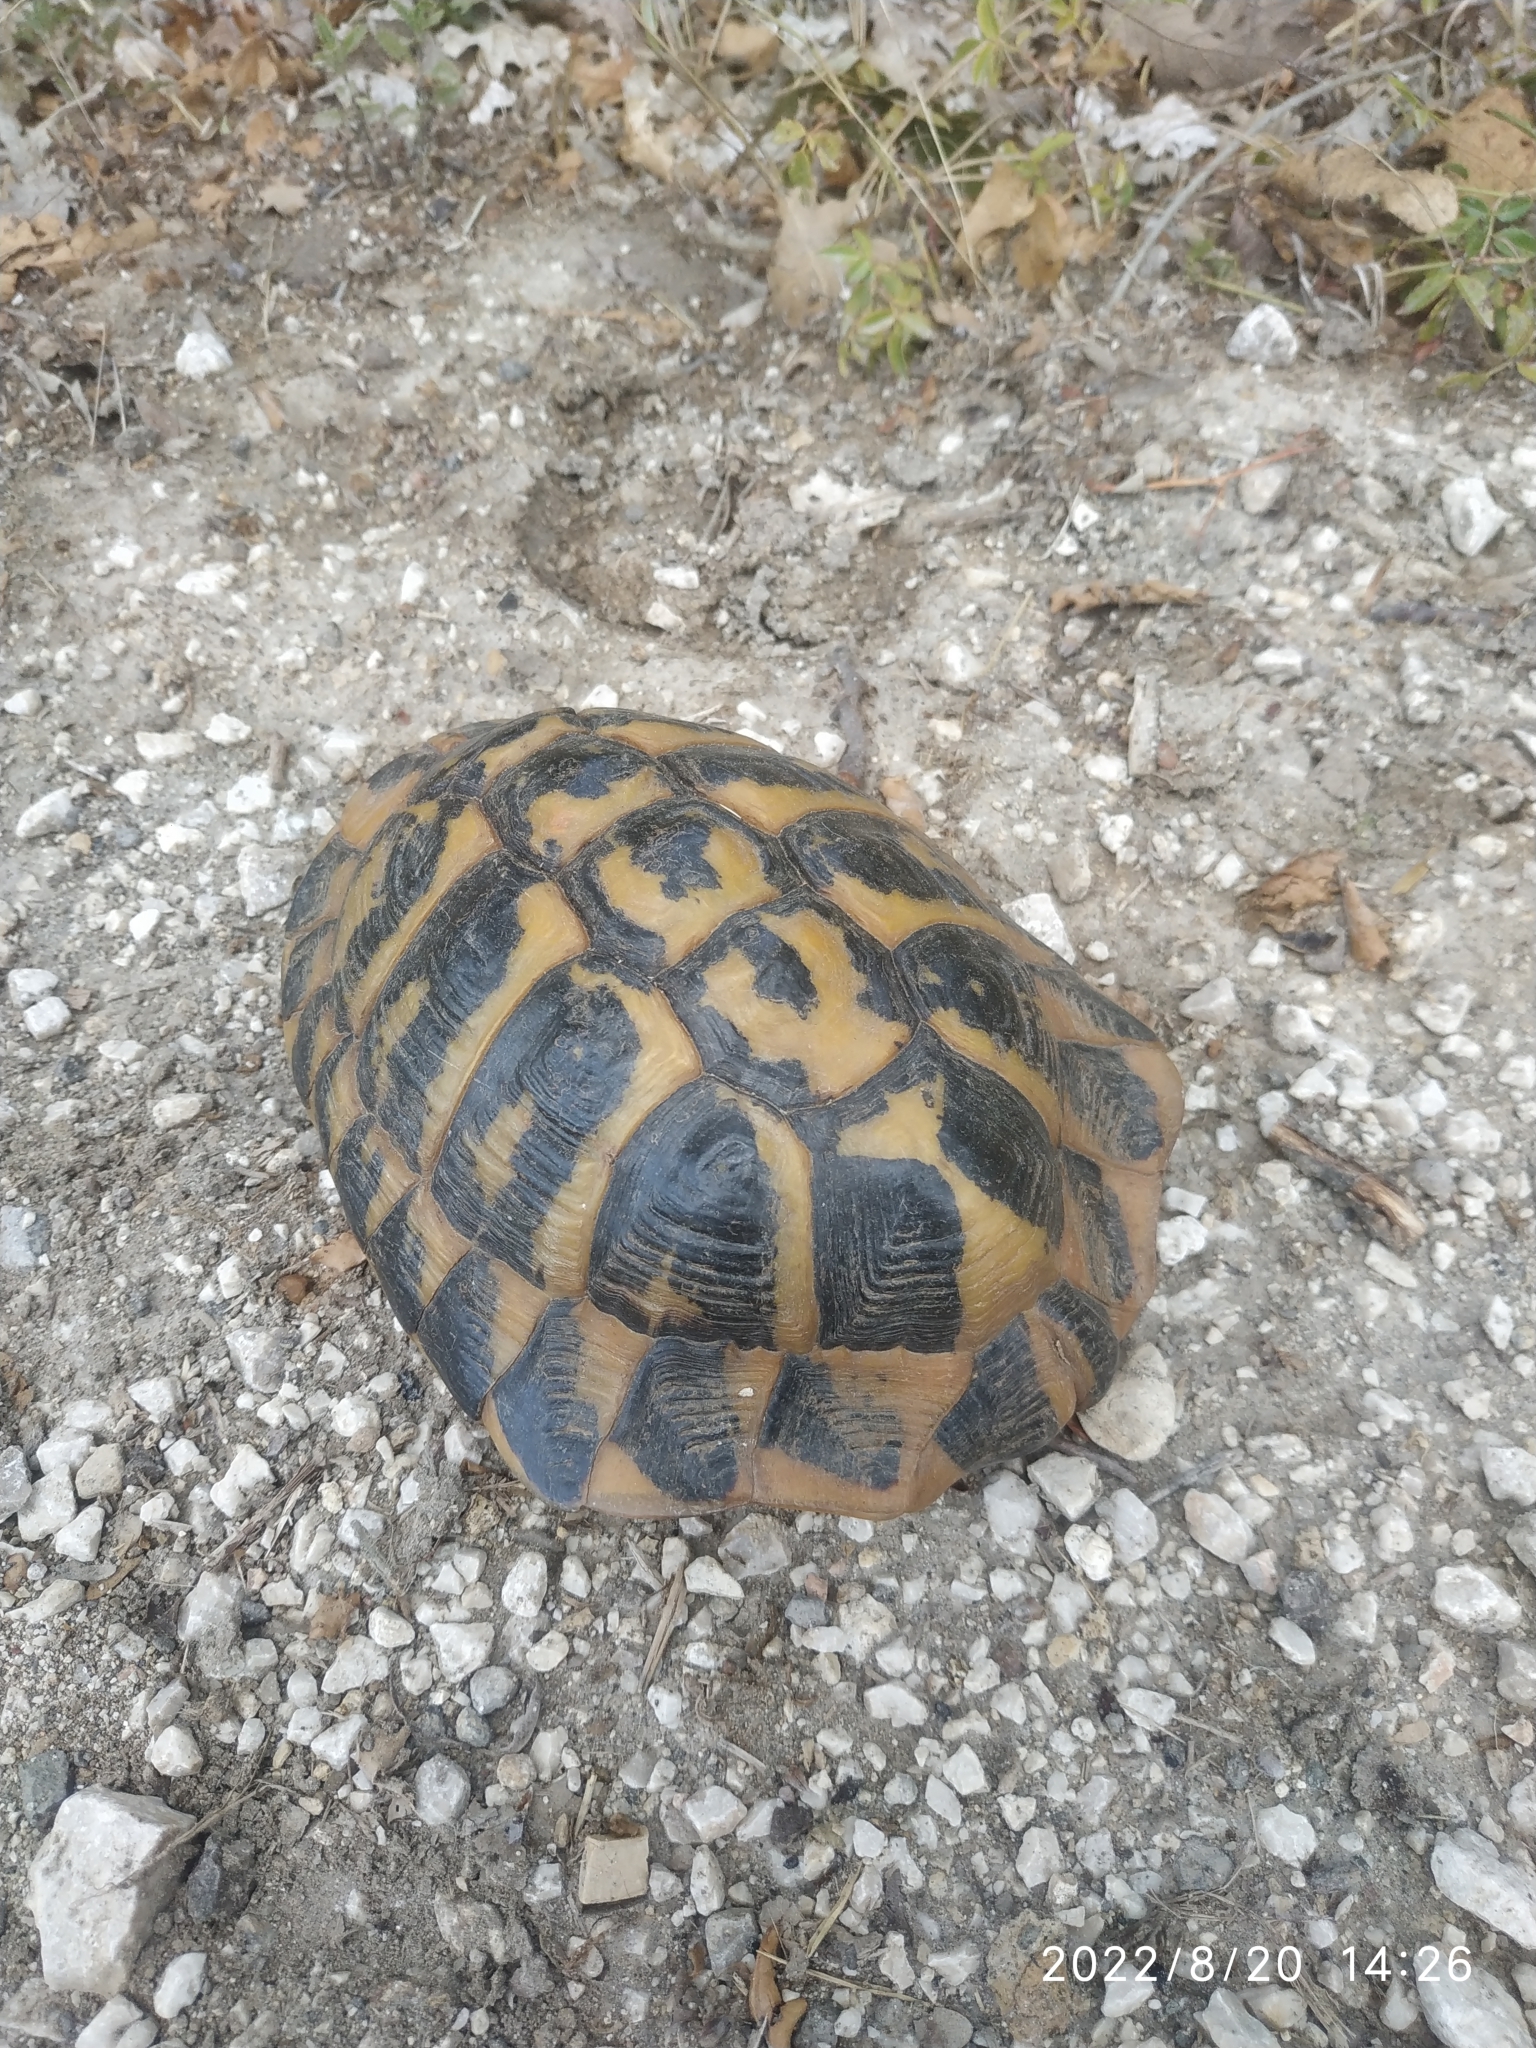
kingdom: Animalia
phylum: Chordata
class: Testudines
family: Testudinidae
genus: Testudo
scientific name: Testudo hermanni
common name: Hermann's tortoise
